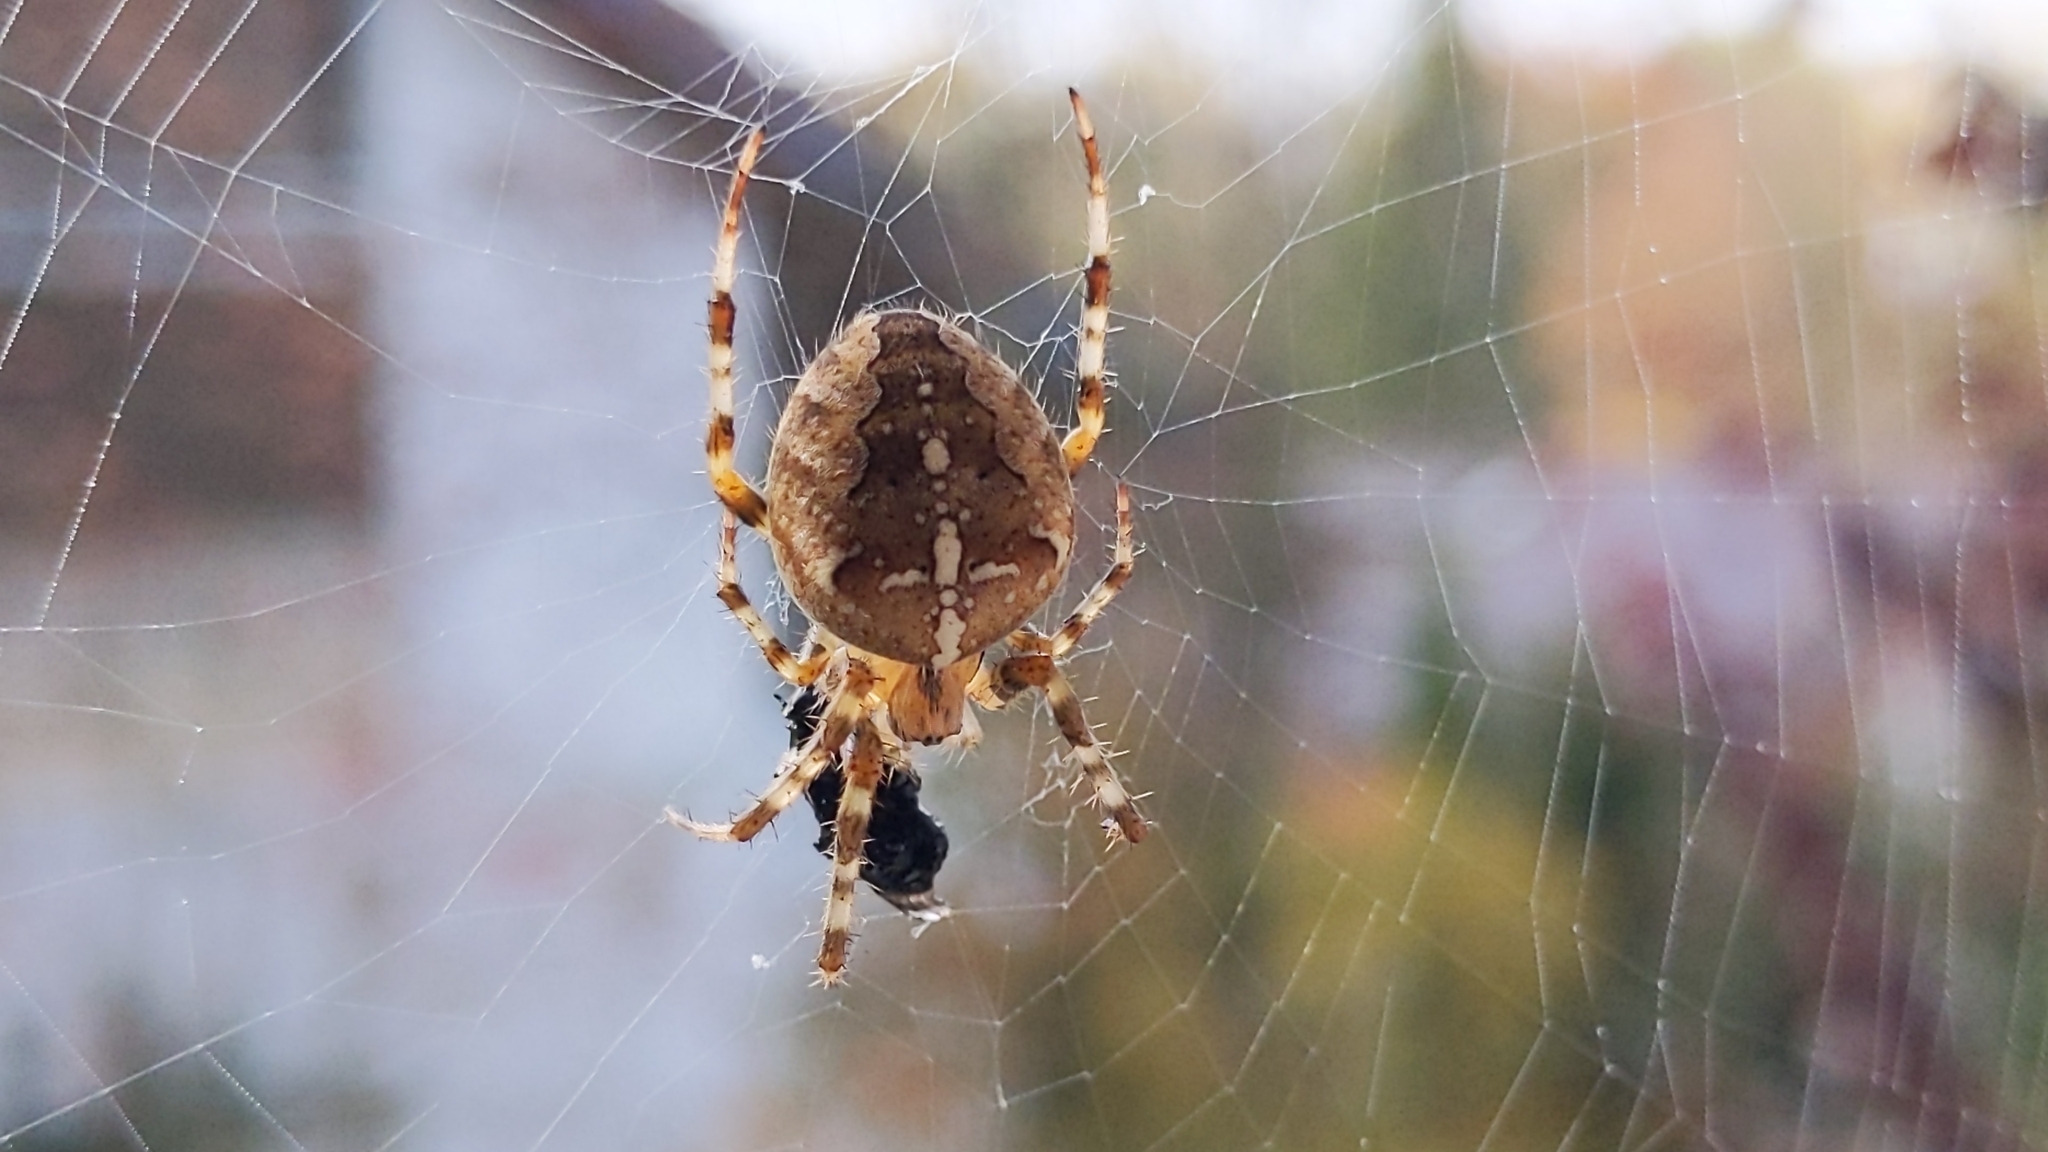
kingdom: Animalia
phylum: Arthropoda
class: Arachnida
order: Araneae
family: Araneidae
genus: Araneus
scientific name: Araneus diadematus
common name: Cross orbweaver
